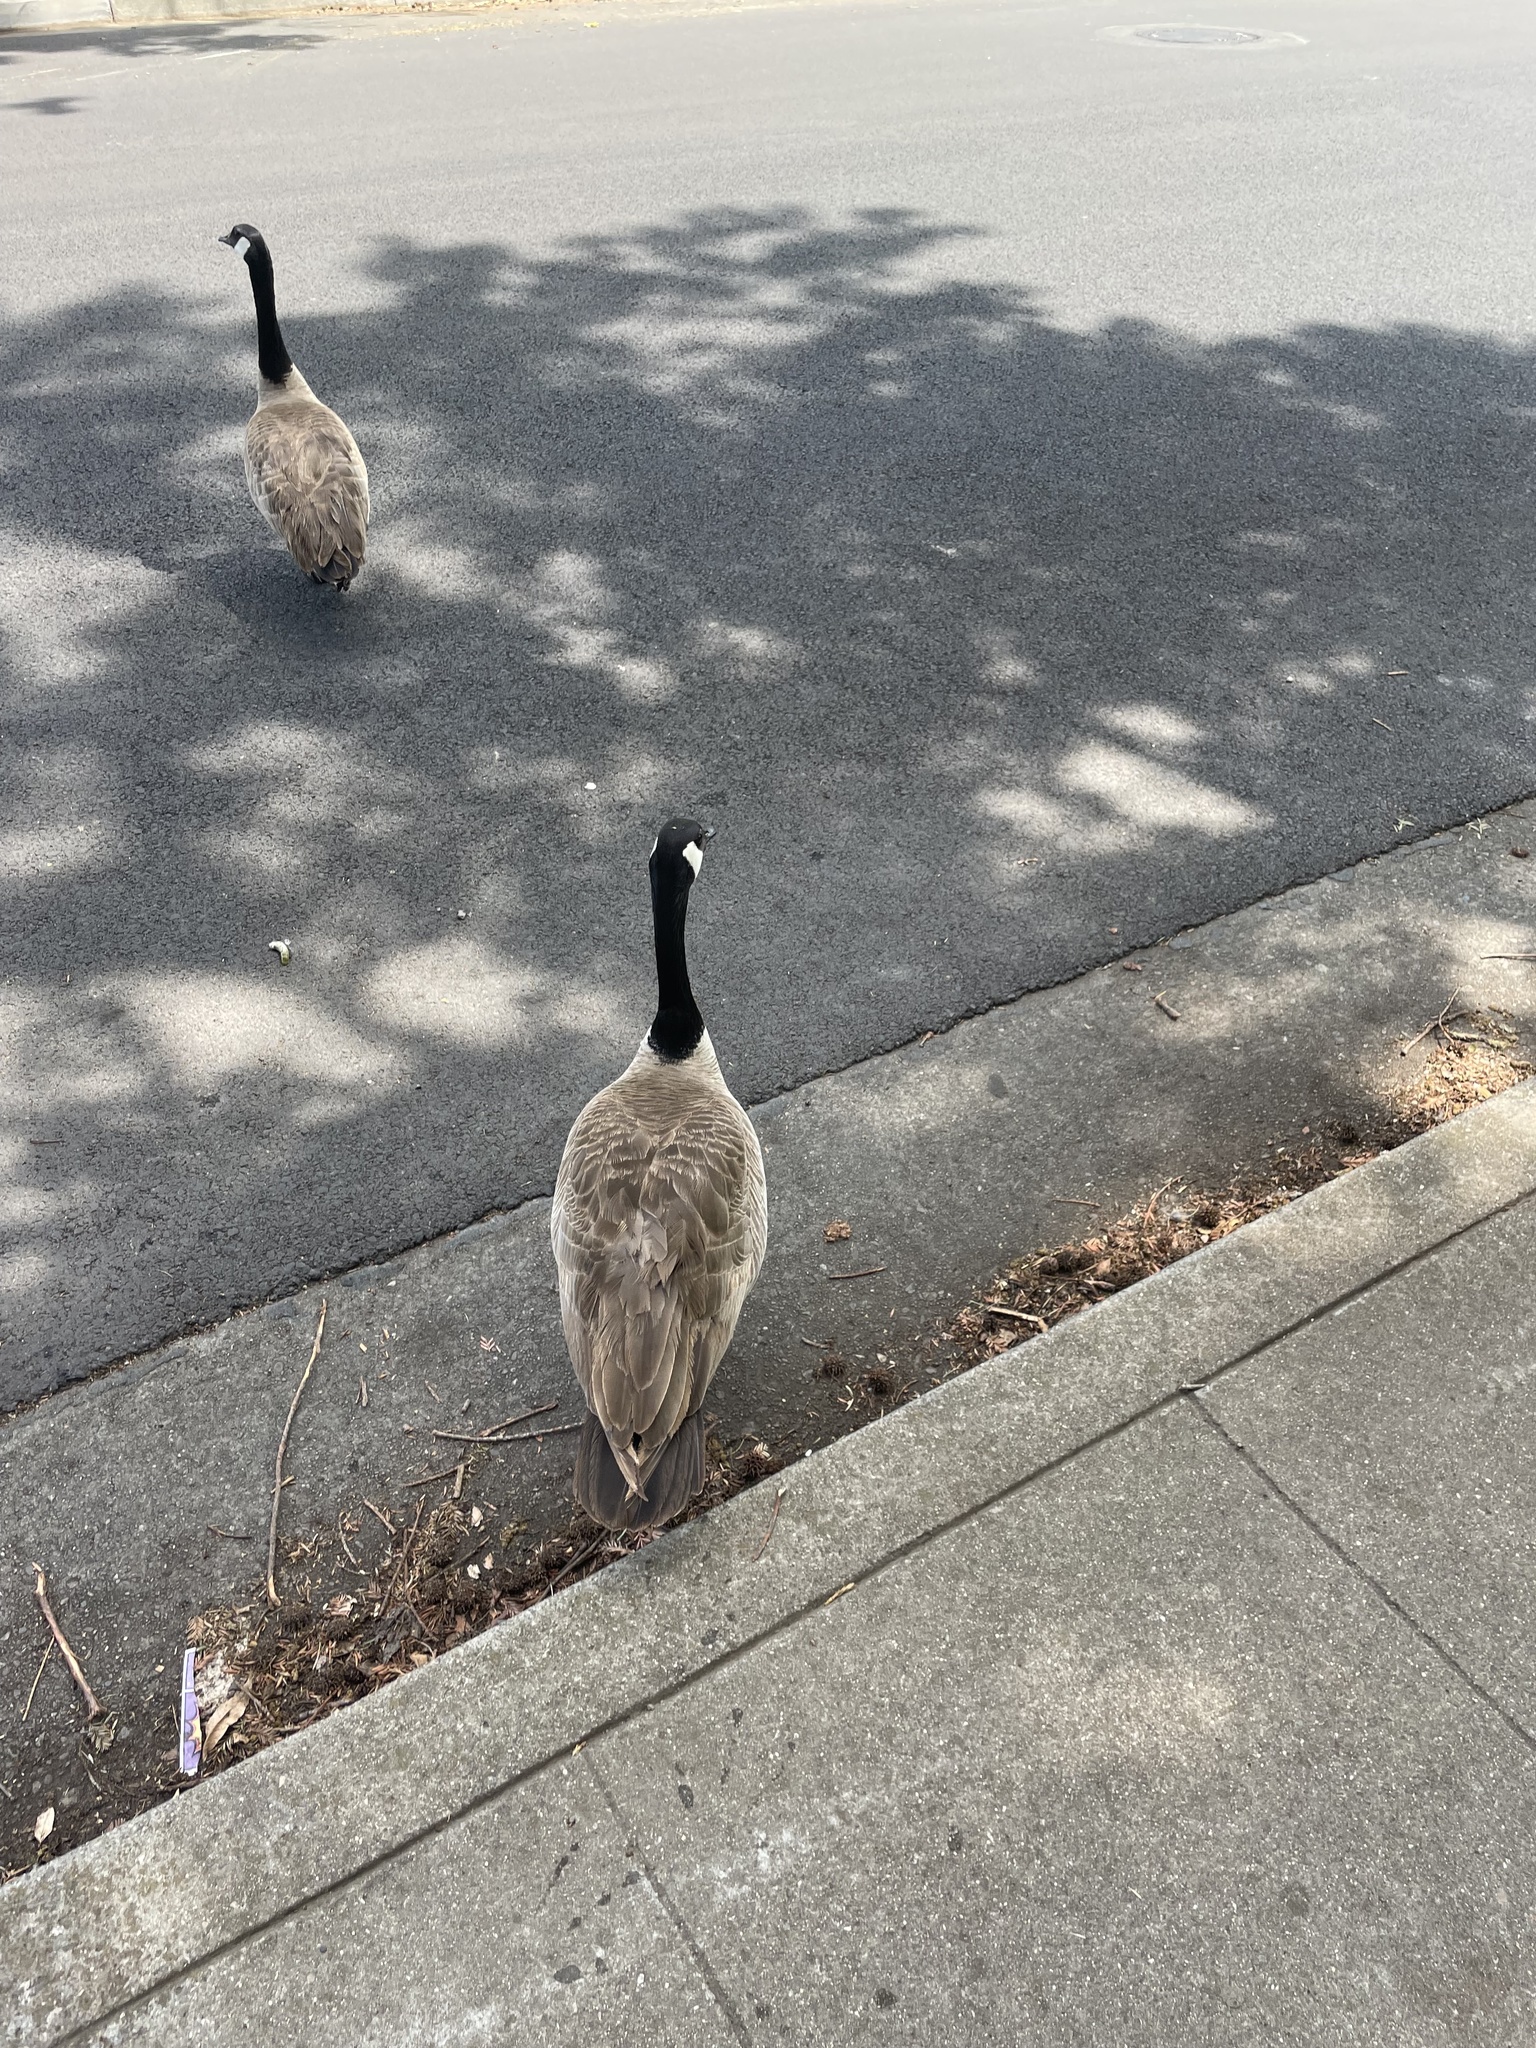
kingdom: Animalia
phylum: Chordata
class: Aves
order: Anseriformes
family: Anatidae
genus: Branta
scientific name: Branta canadensis
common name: Canada goose
